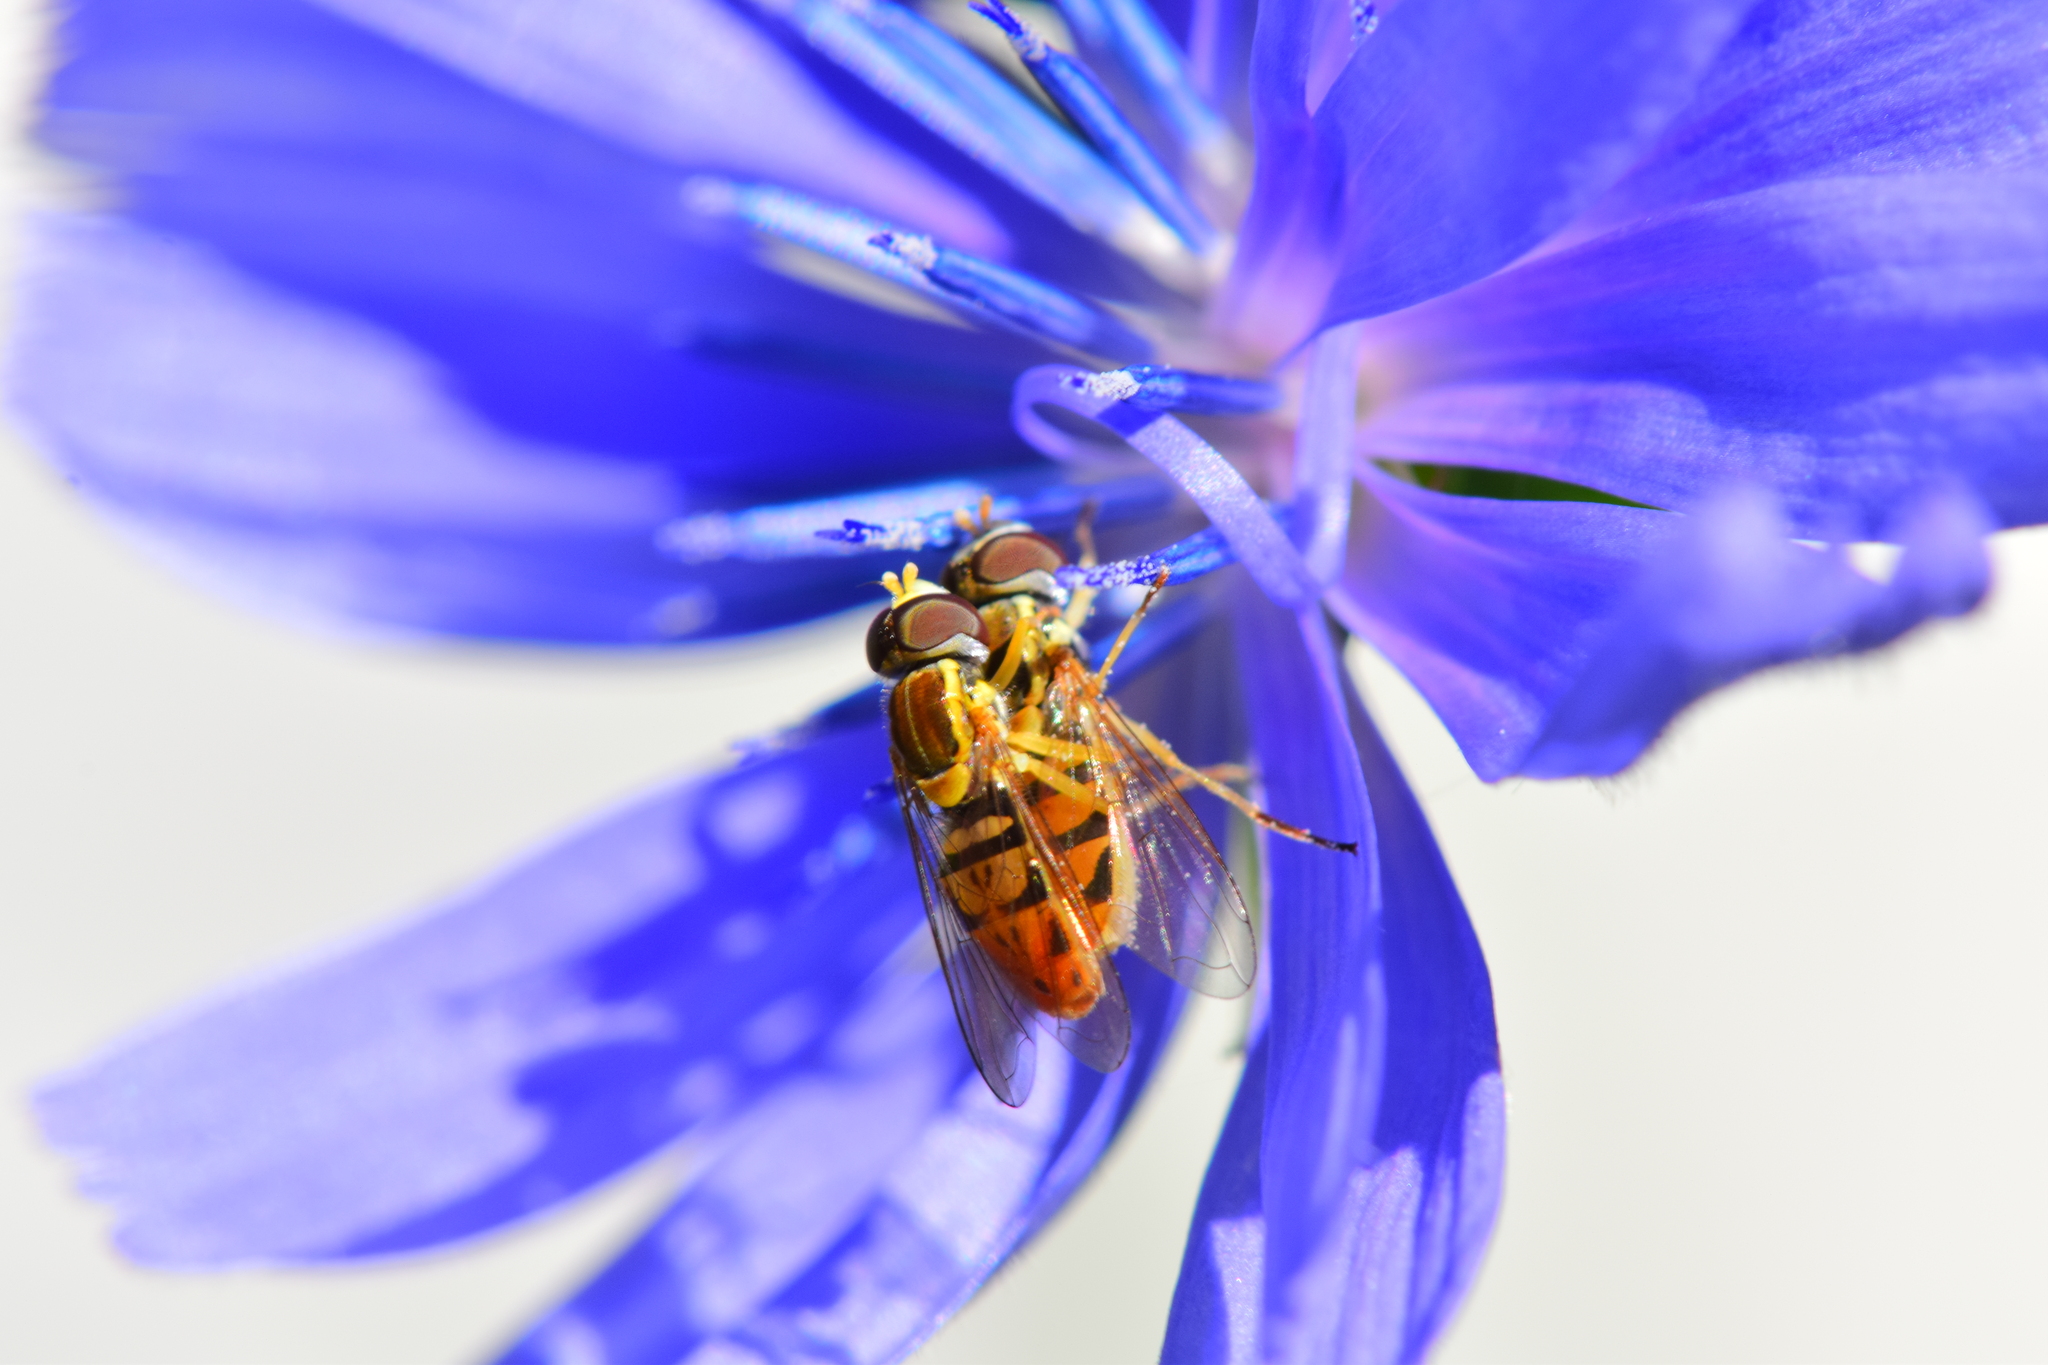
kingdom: Animalia
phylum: Arthropoda
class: Insecta
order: Diptera
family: Syrphidae
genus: Toxomerus
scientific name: Toxomerus marginatus
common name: Syrphid fly
